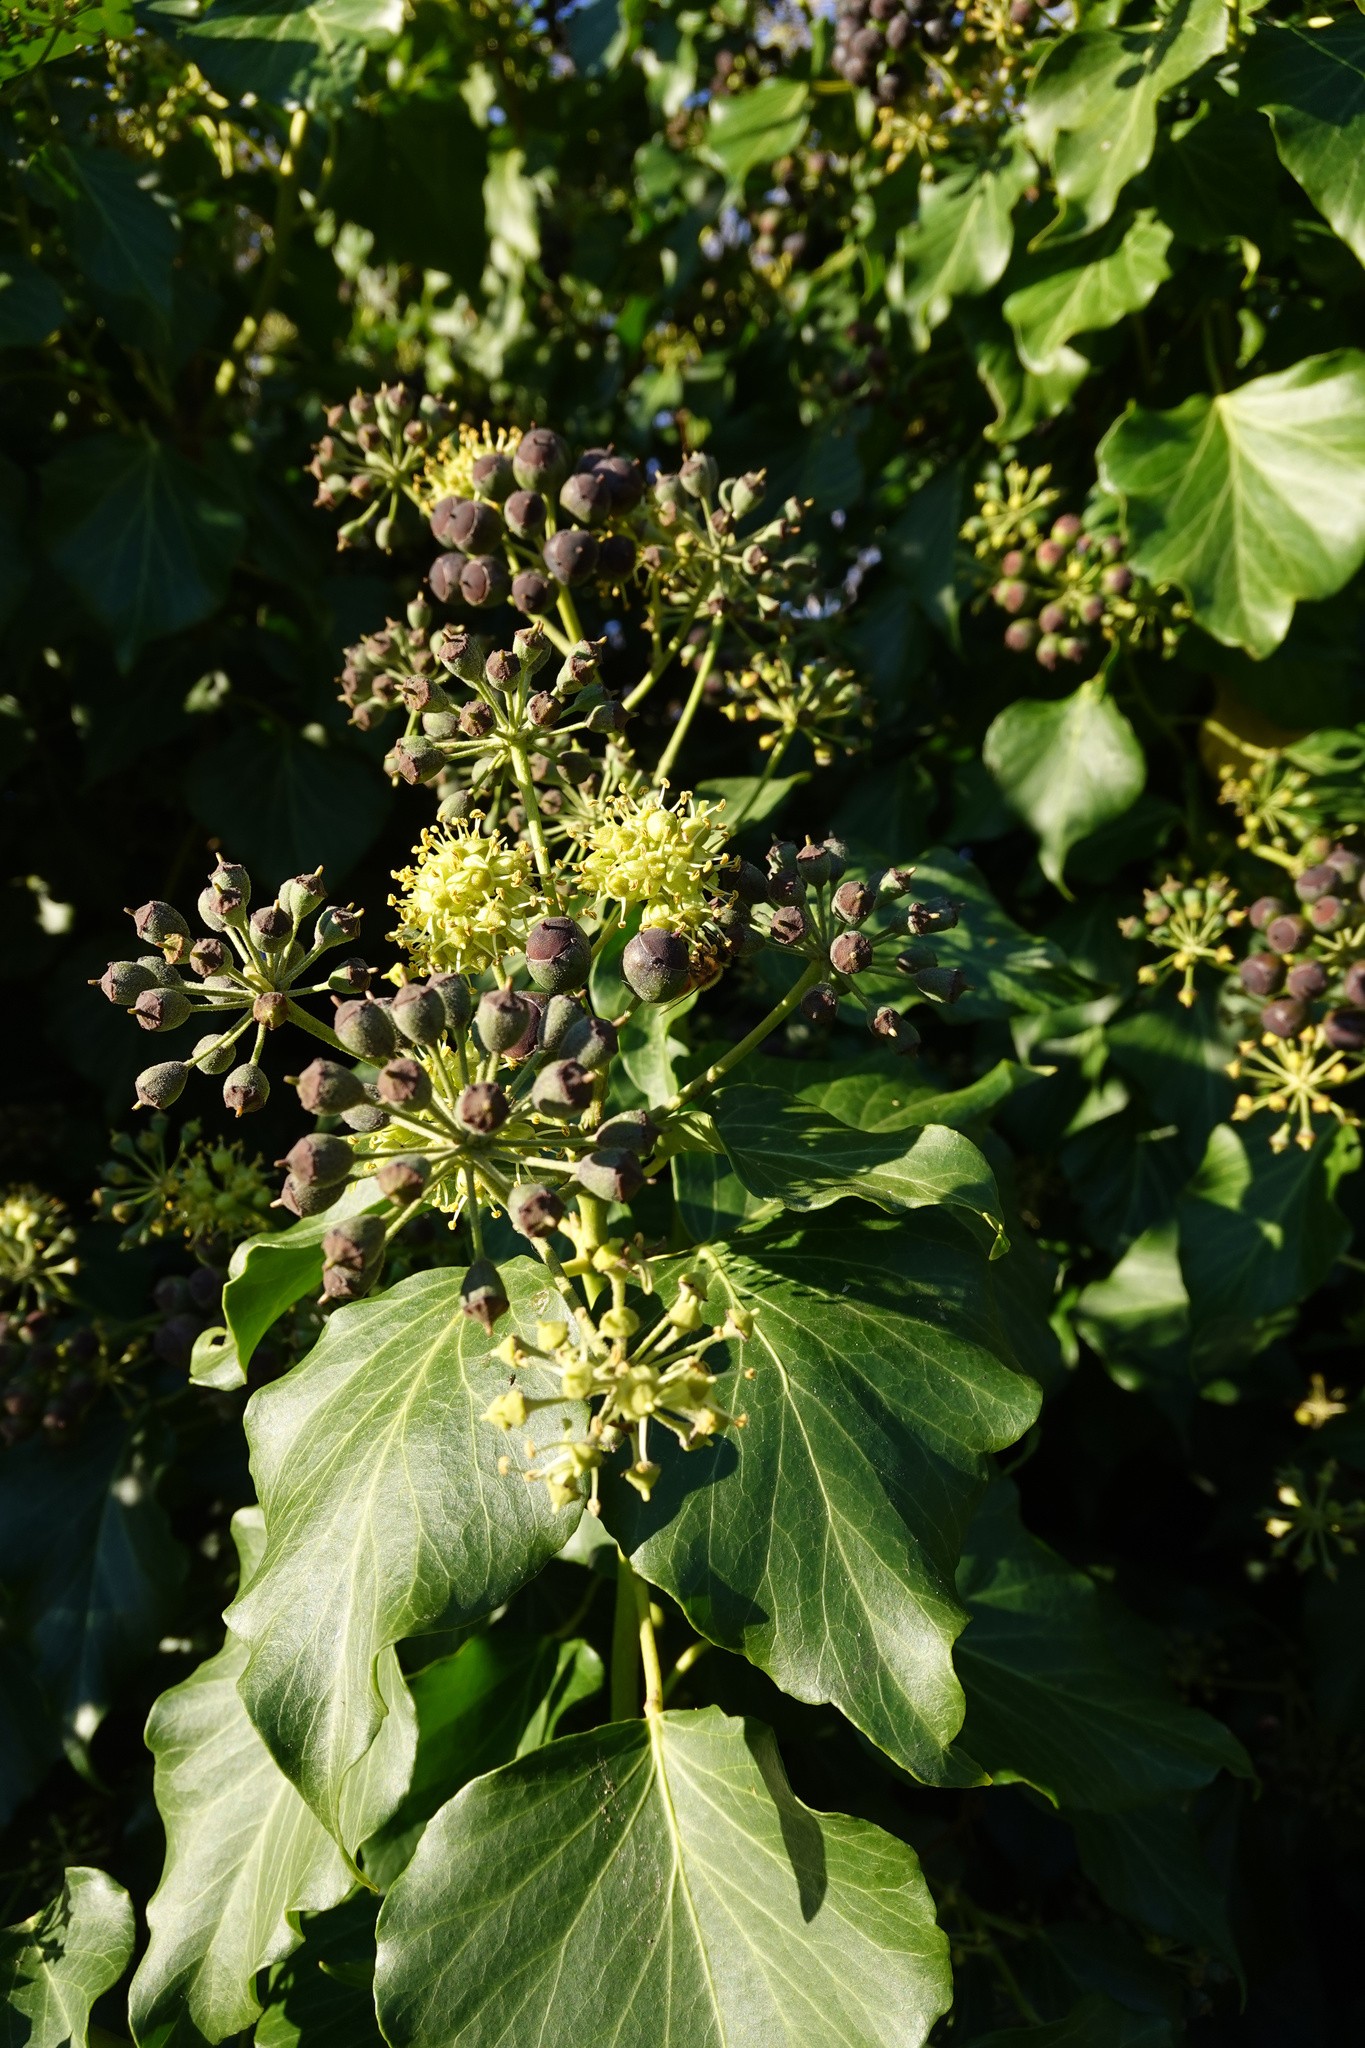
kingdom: Plantae
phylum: Tracheophyta
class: Magnoliopsida
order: Apiales
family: Araliaceae
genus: Hedera
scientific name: Hedera helix
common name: Ivy
